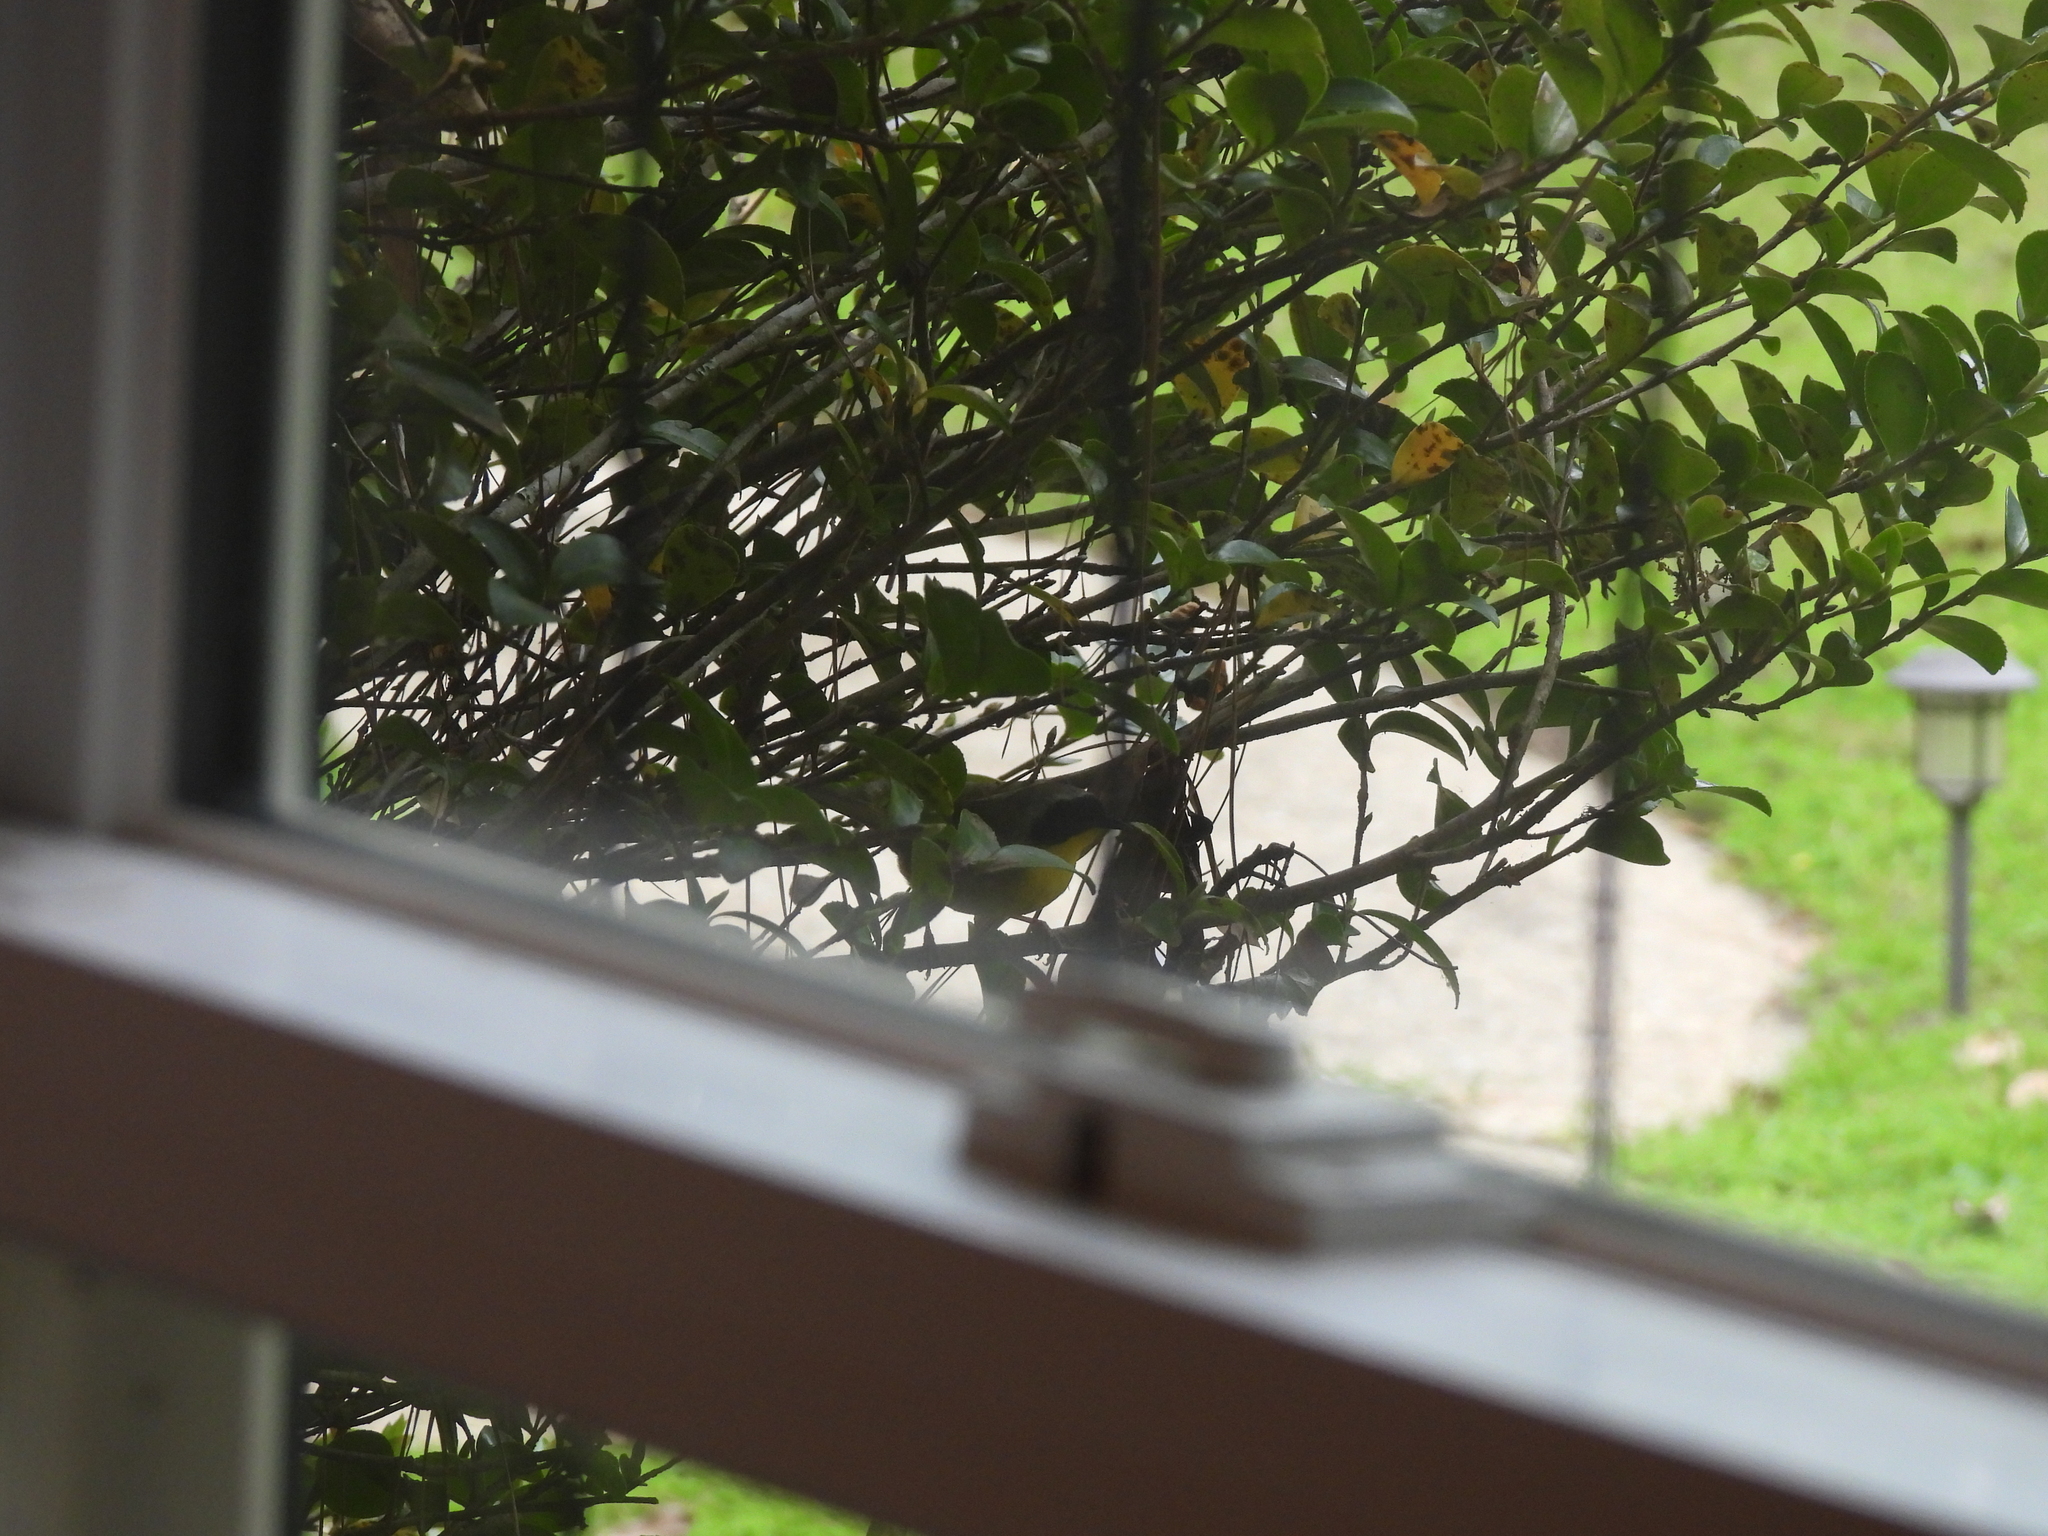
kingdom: Animalia
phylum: Chordata
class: Aves
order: Passeriformes
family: Parulidae
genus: Geothlypis
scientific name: Geothlypis trichas
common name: Common yellowthroat
